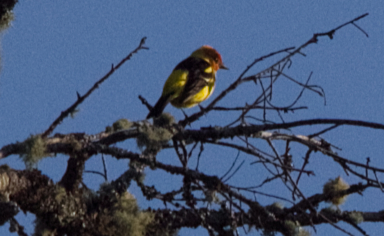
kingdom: Animalia
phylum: Chordata
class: Aves
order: Passeriformes
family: Cardinalidae
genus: Piranga
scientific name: Piranga ludoviciana
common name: Western tanager
